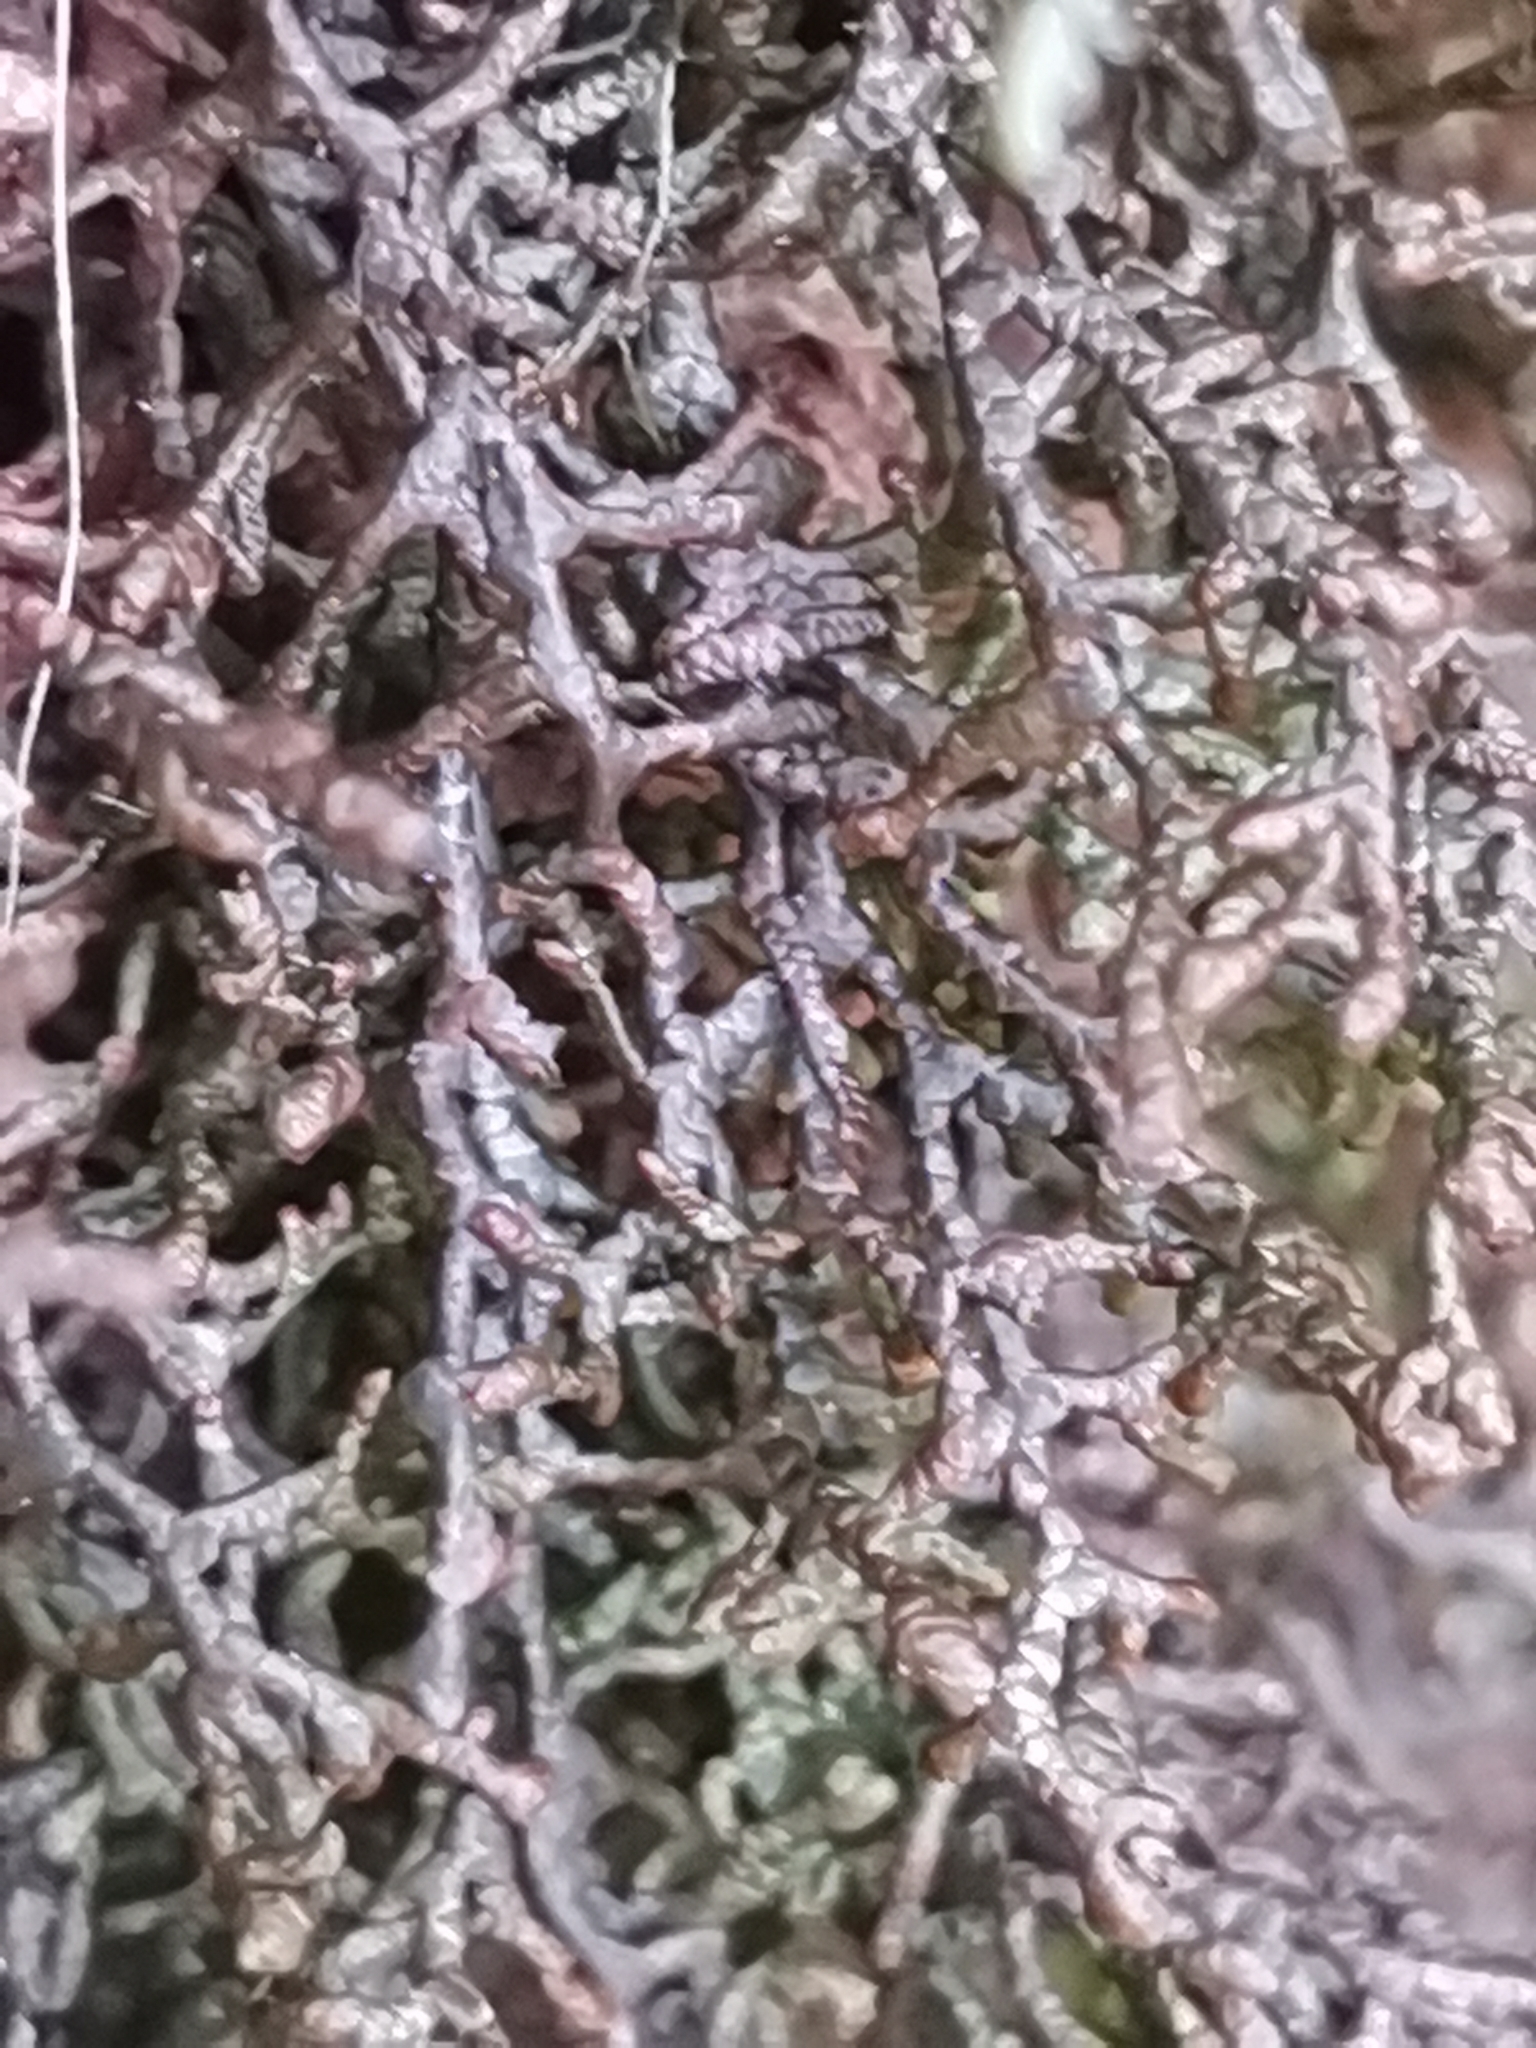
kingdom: Plantae
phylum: Marchantiophyta
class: Jungermanniopsida
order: Porellales
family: Frullaniaceae
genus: Frullania
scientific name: Frullania tamarisci
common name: Tamarisk scalewort
